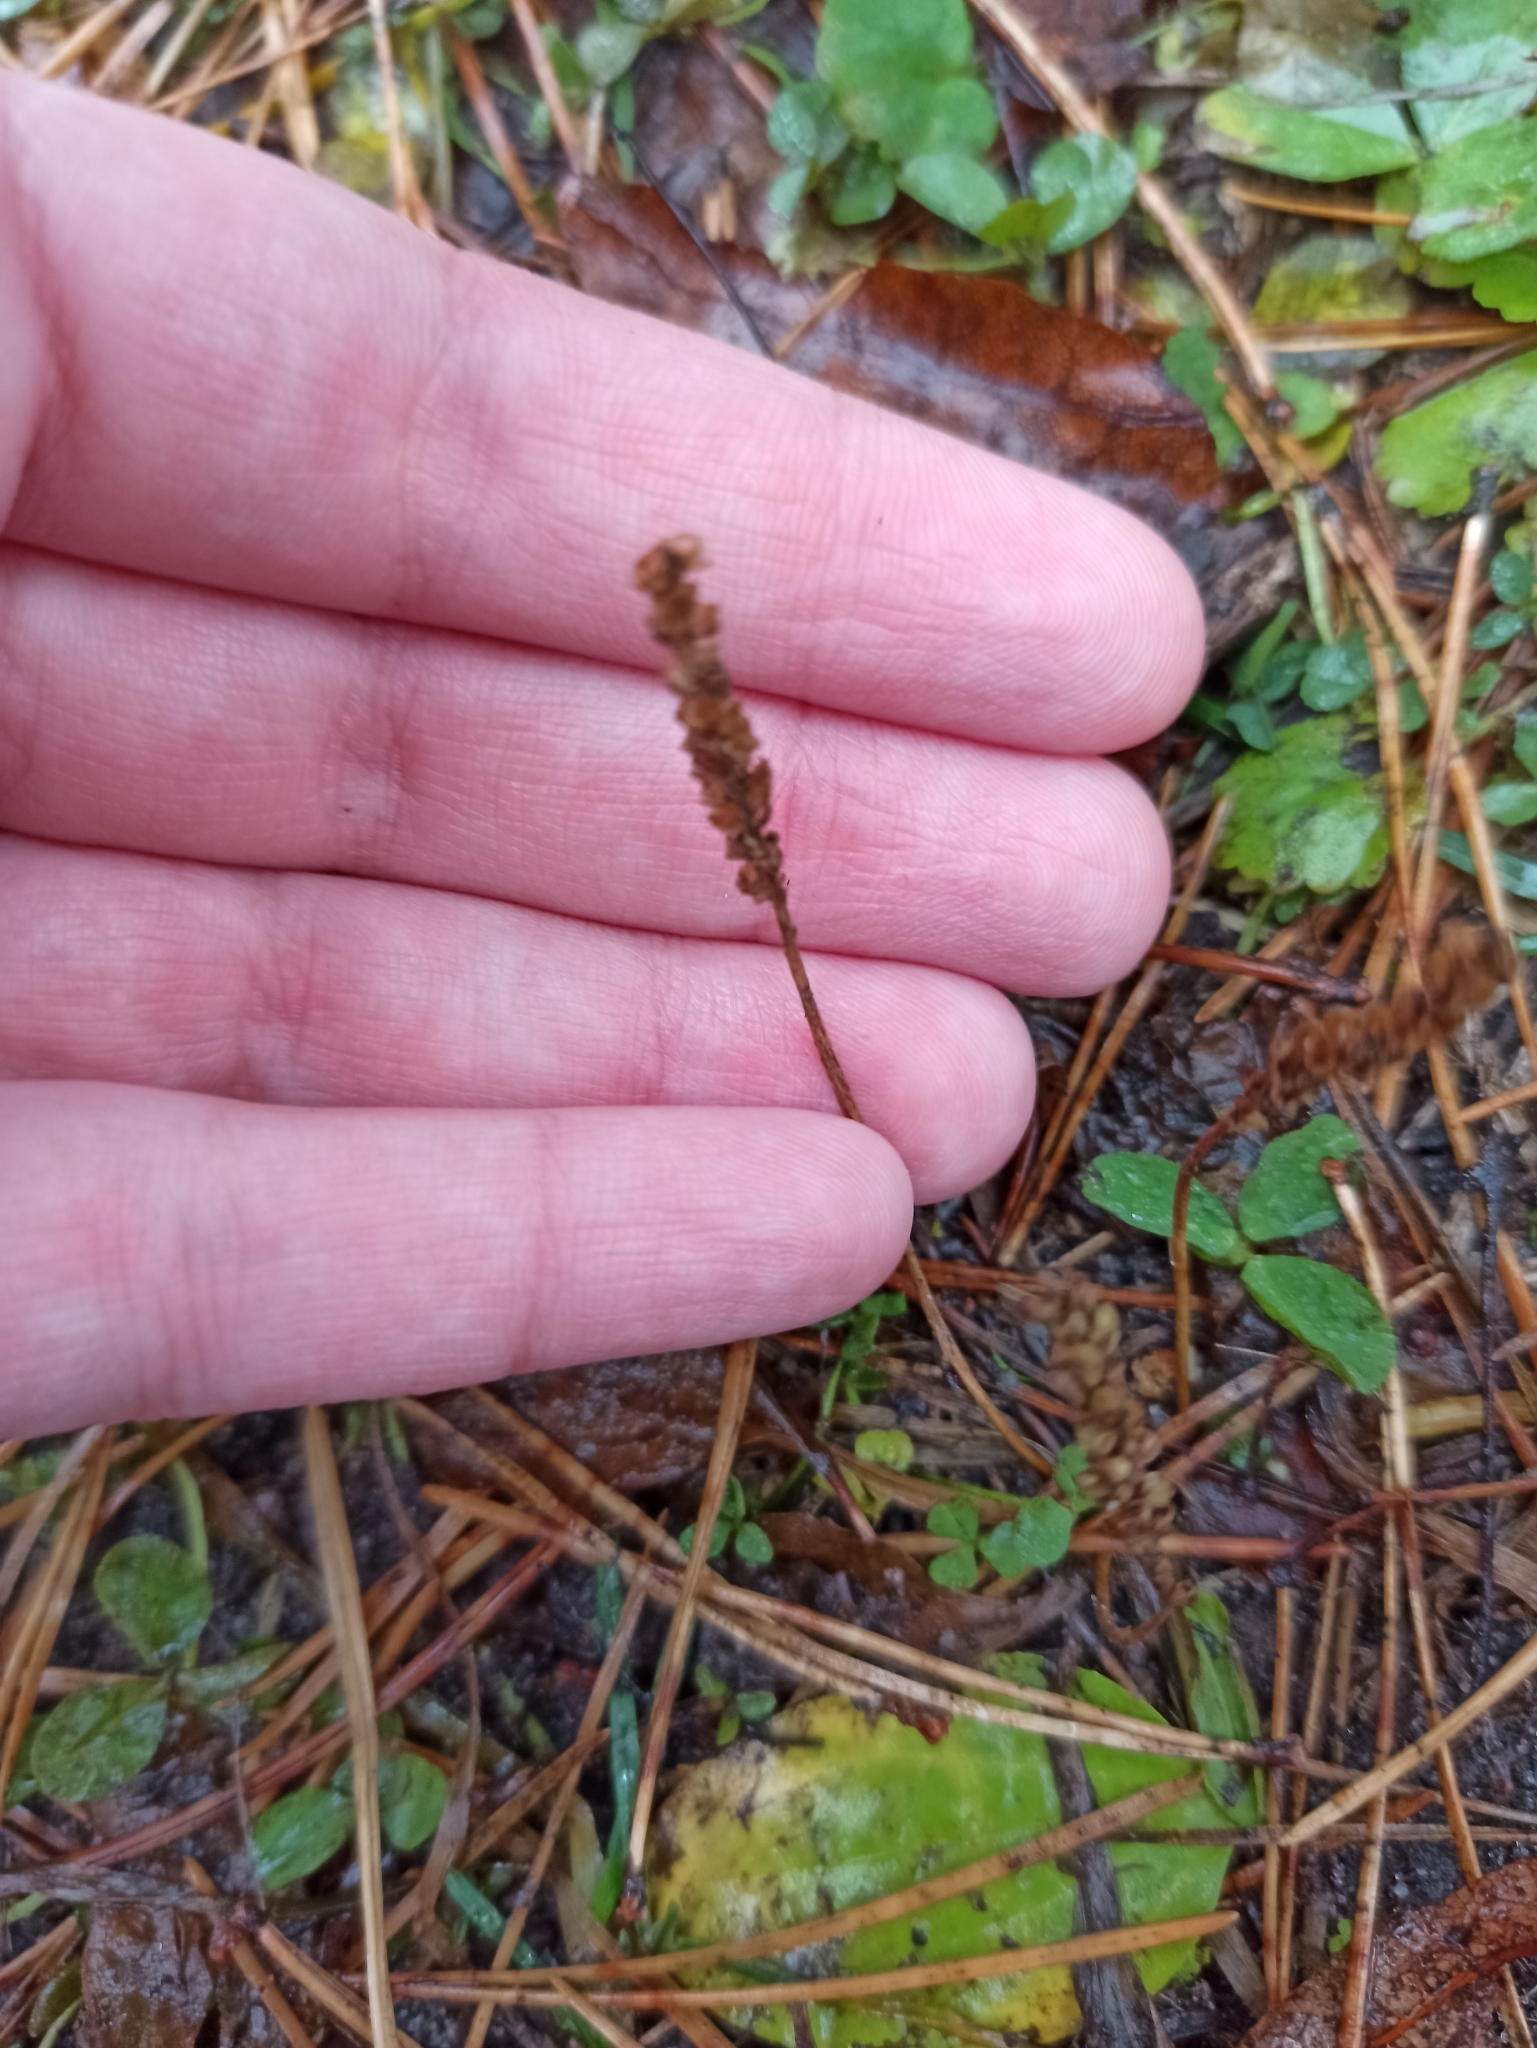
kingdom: Plantae
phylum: Tracheophyta
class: Magnoliopsida
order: Lamiales
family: Plantaginaceae
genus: Plantago
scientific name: Plantago major
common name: Common plantain
